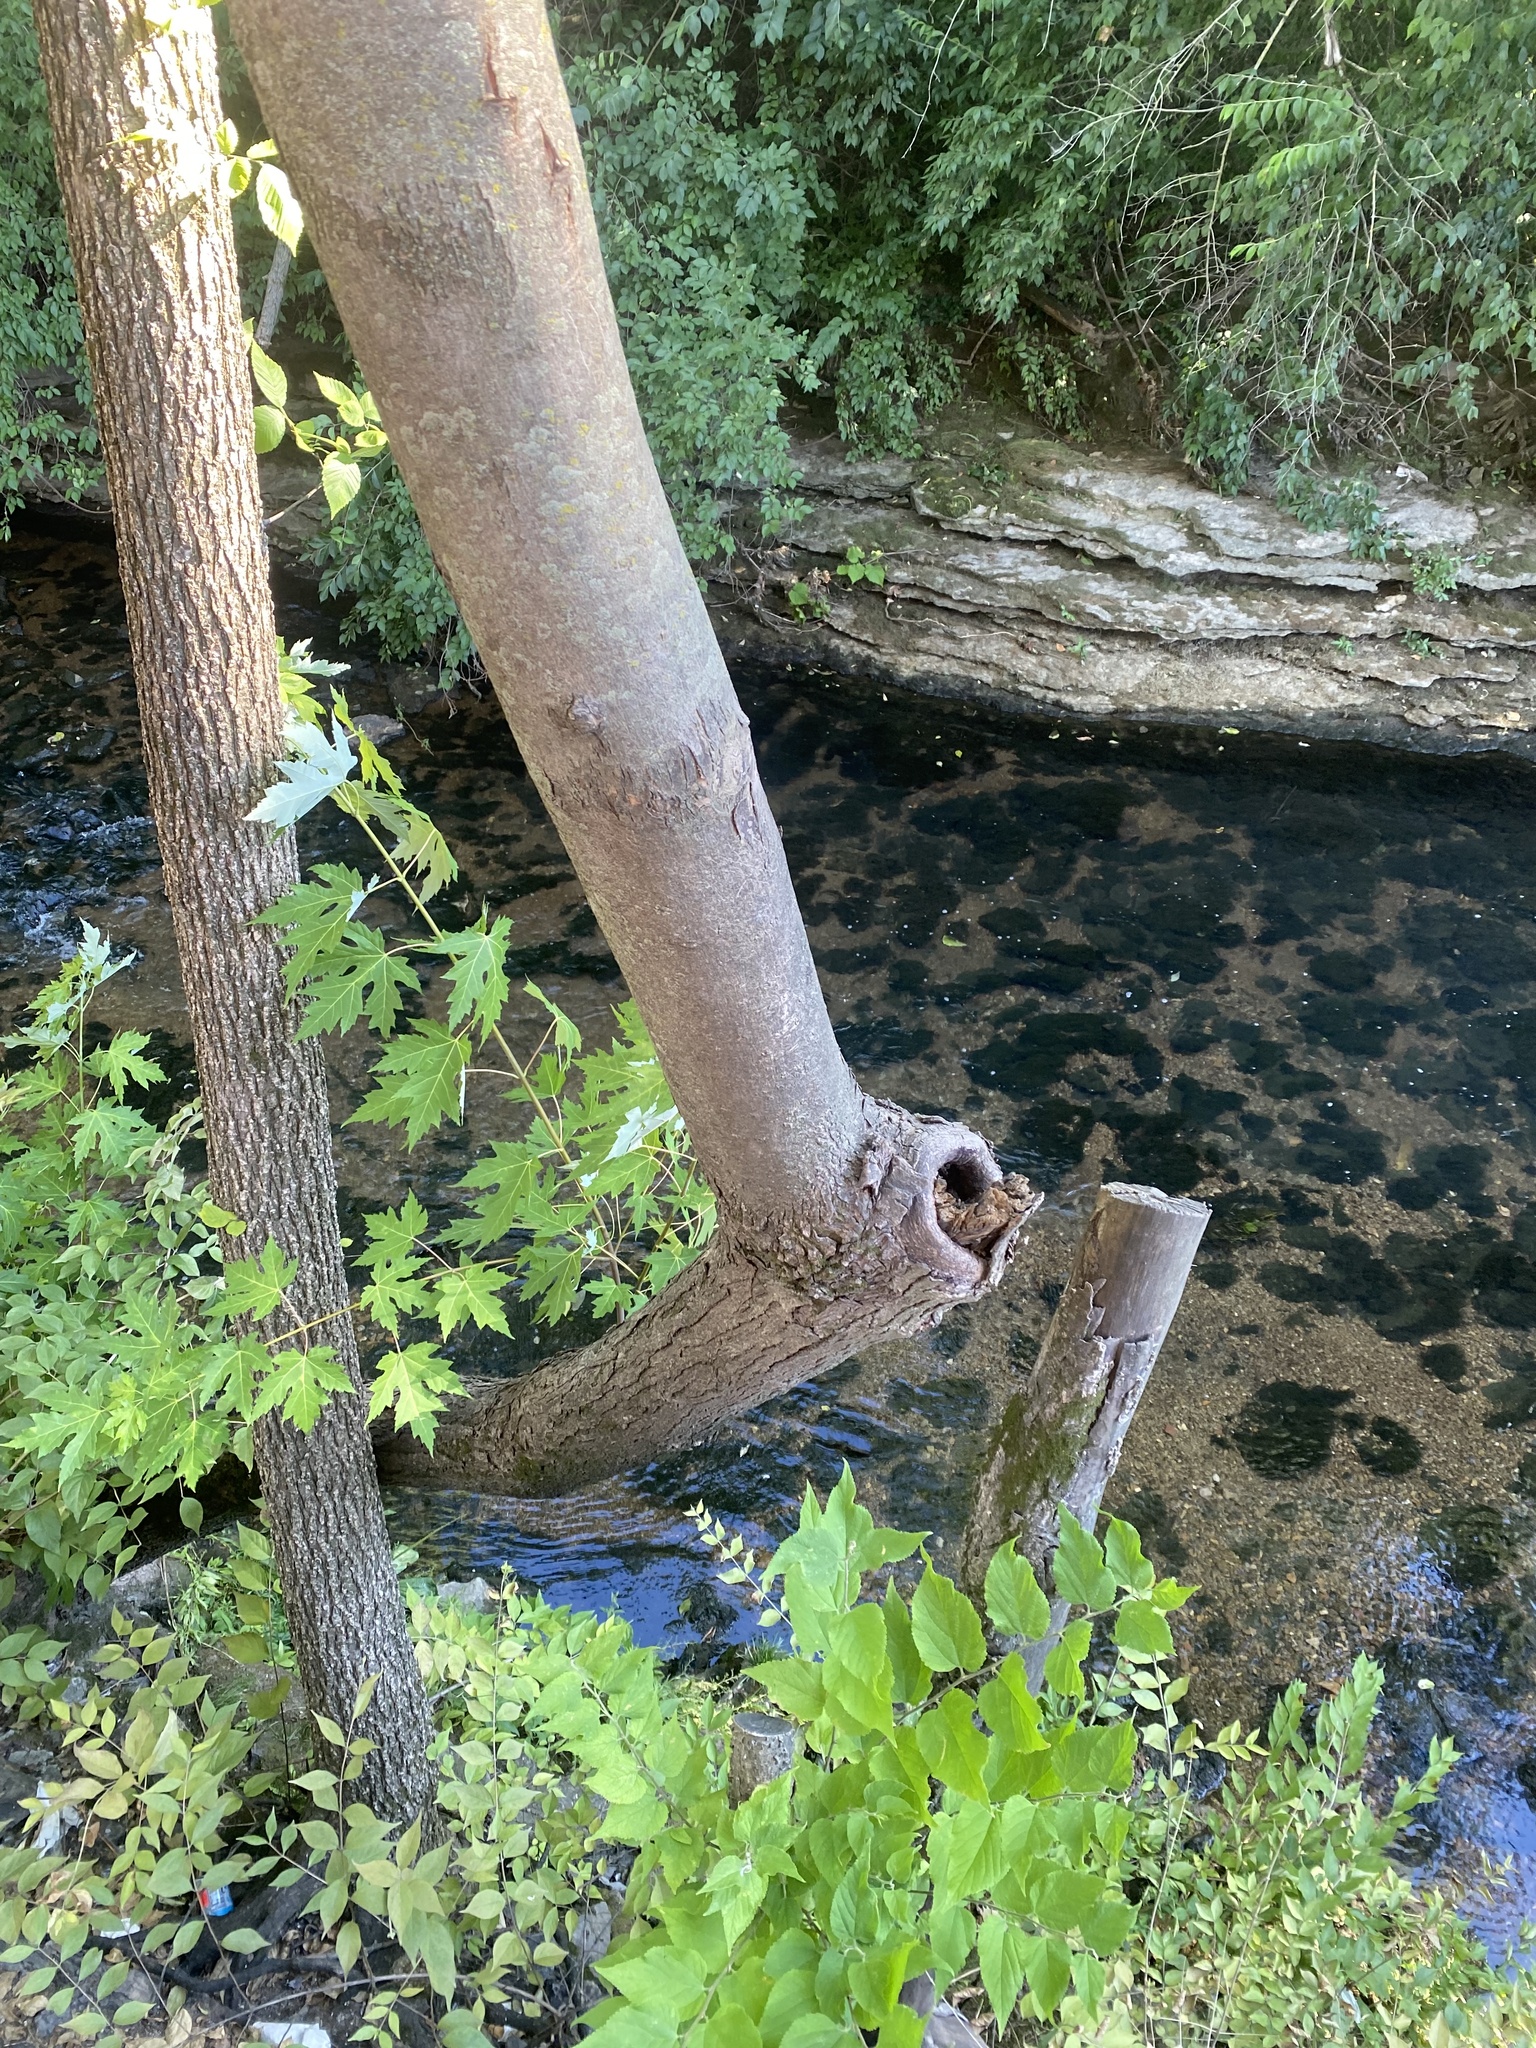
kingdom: Plantae
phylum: Tracheophyta
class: Magnoliopsida
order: Sapindales
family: Sapindaceae
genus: Acer
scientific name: Acer saccharinum
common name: Silver maple
